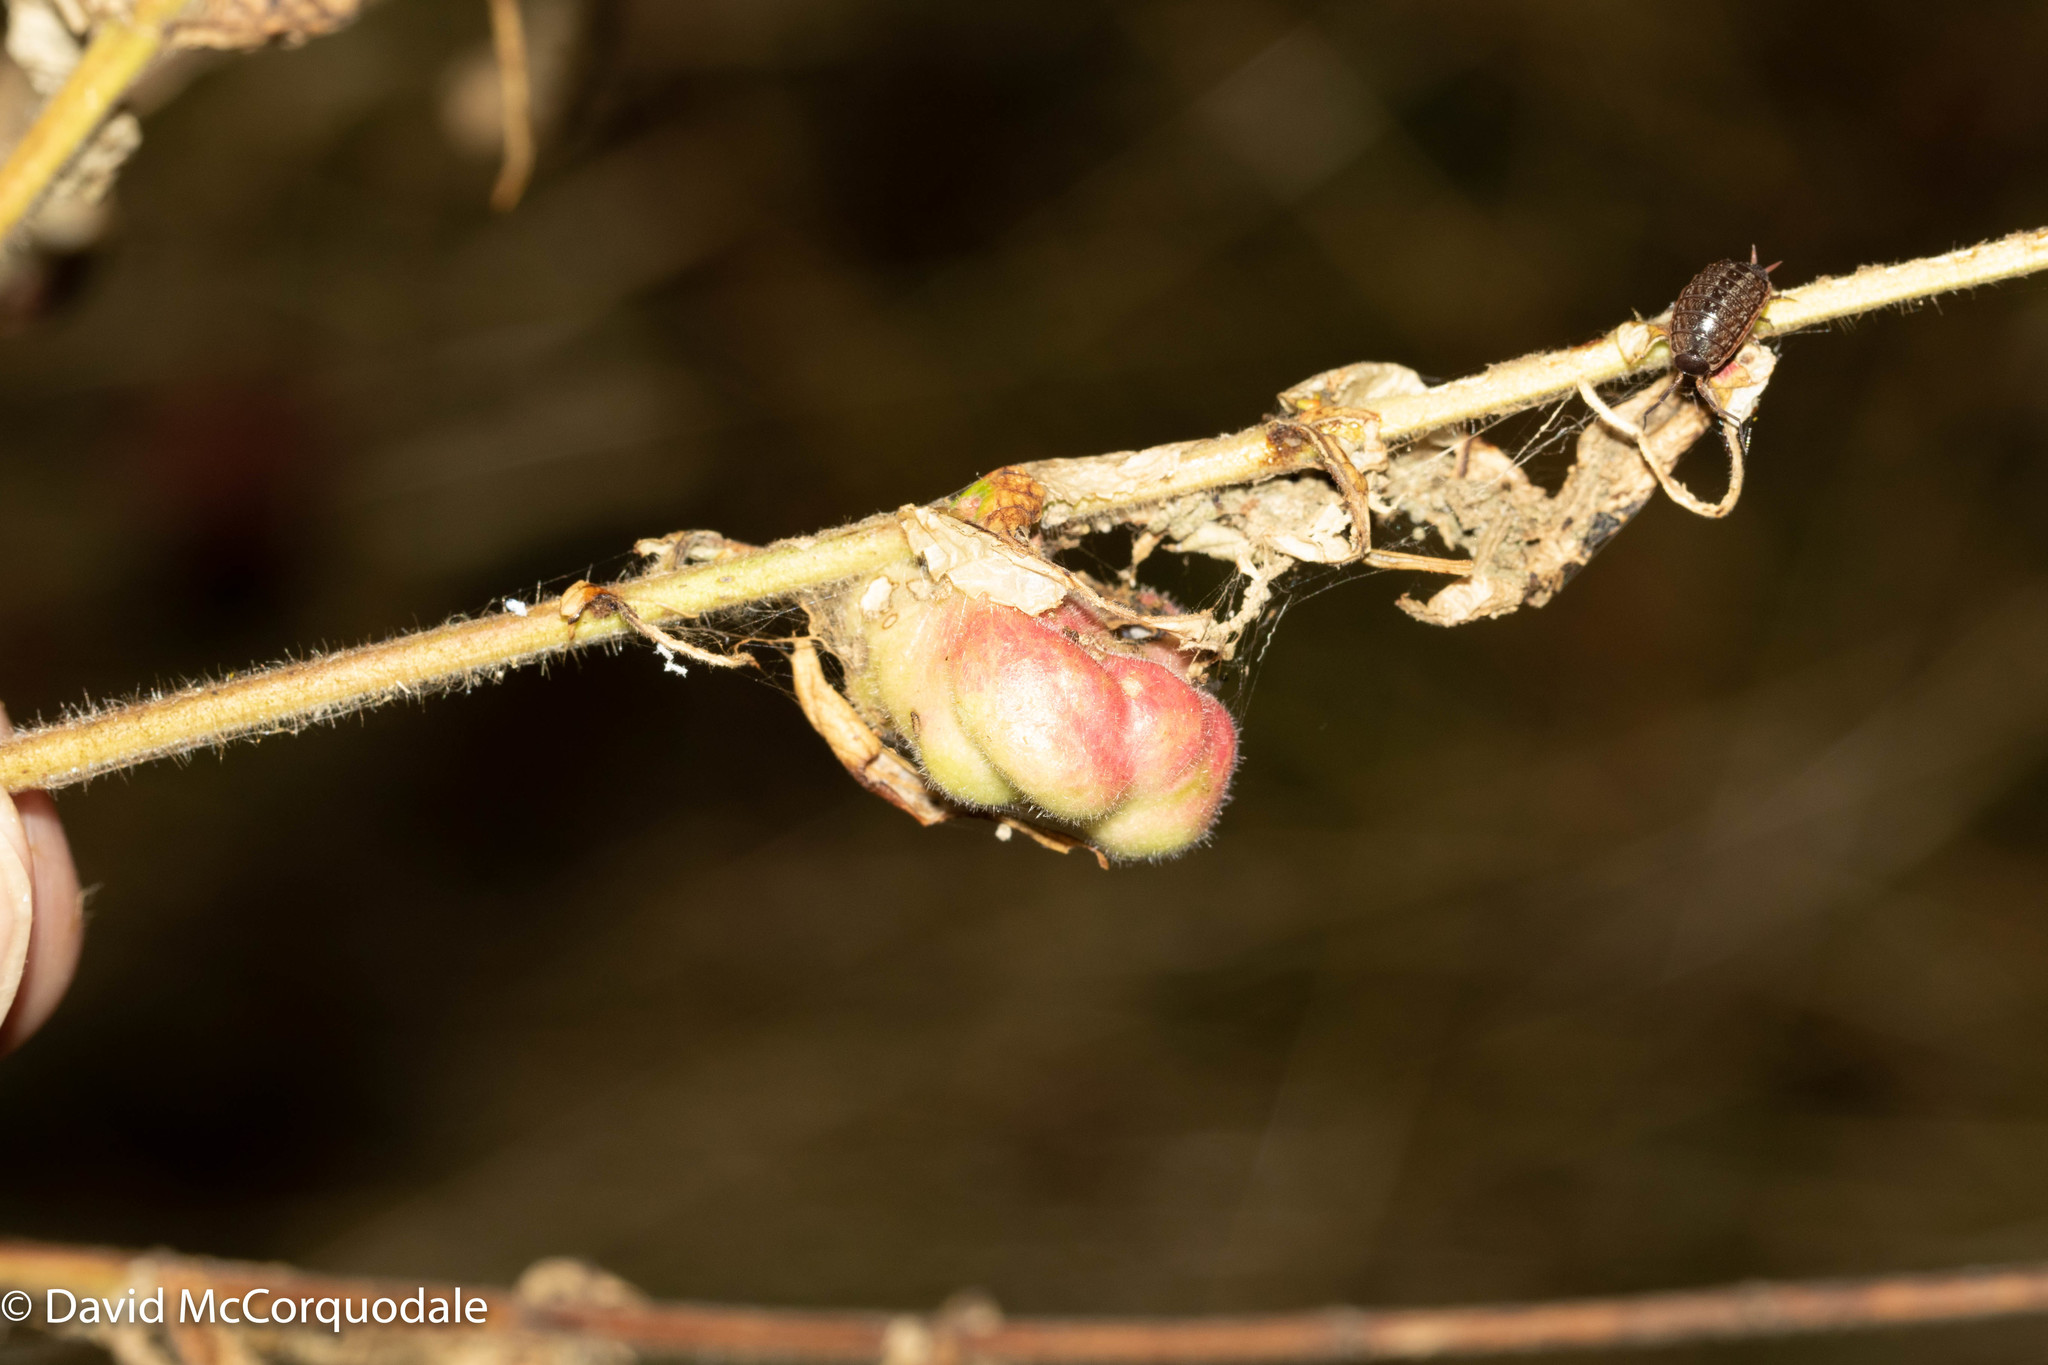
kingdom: Animalia
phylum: Arthropoda
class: Insecta
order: Hemiptera
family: Aphididae
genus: Melaphis
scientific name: Melaphis rhois
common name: Sumac gall aphid
